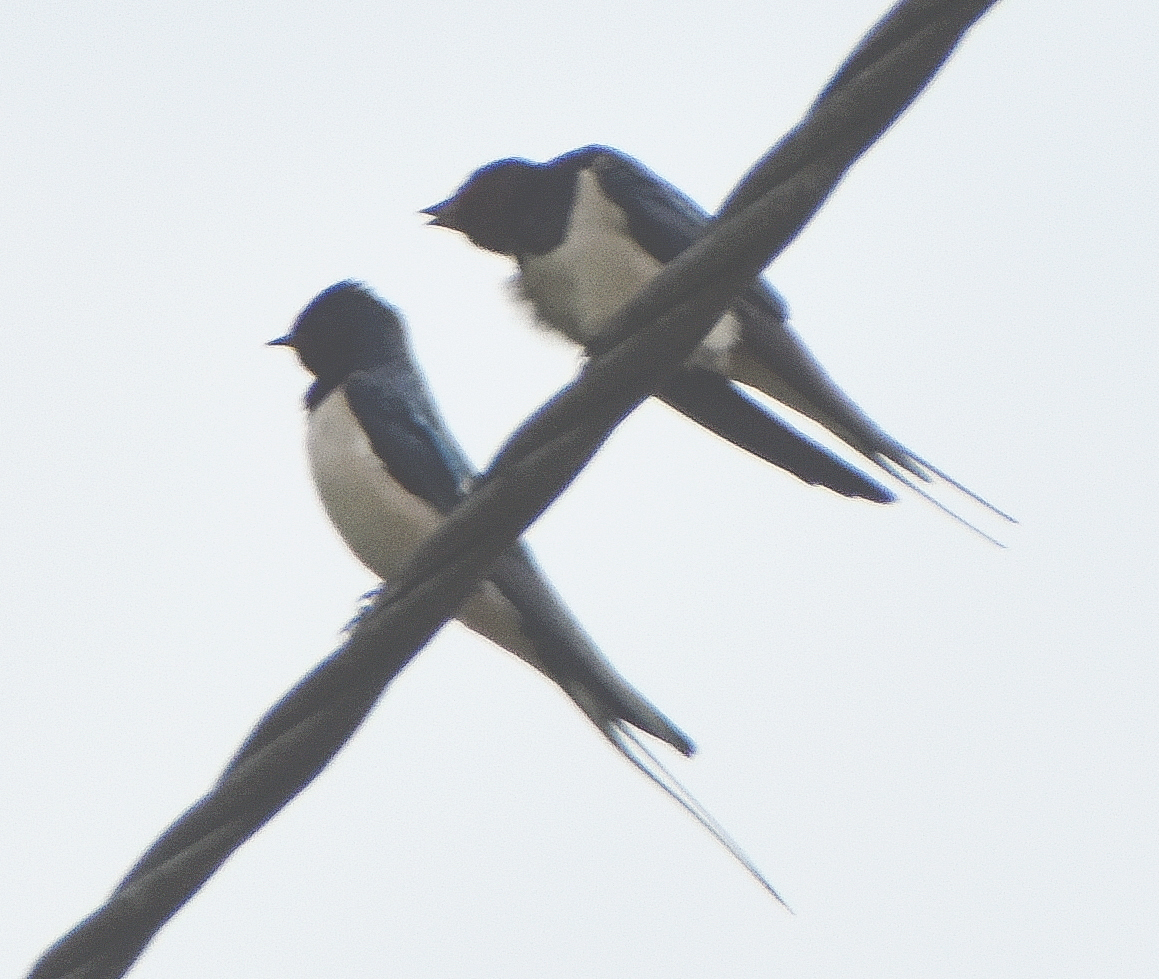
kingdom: Animalia
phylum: Chordata
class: Aves
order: Passeriformes
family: Hirundinidae
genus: Hirundo
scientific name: Hirundo rustica
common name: Barn swallow
